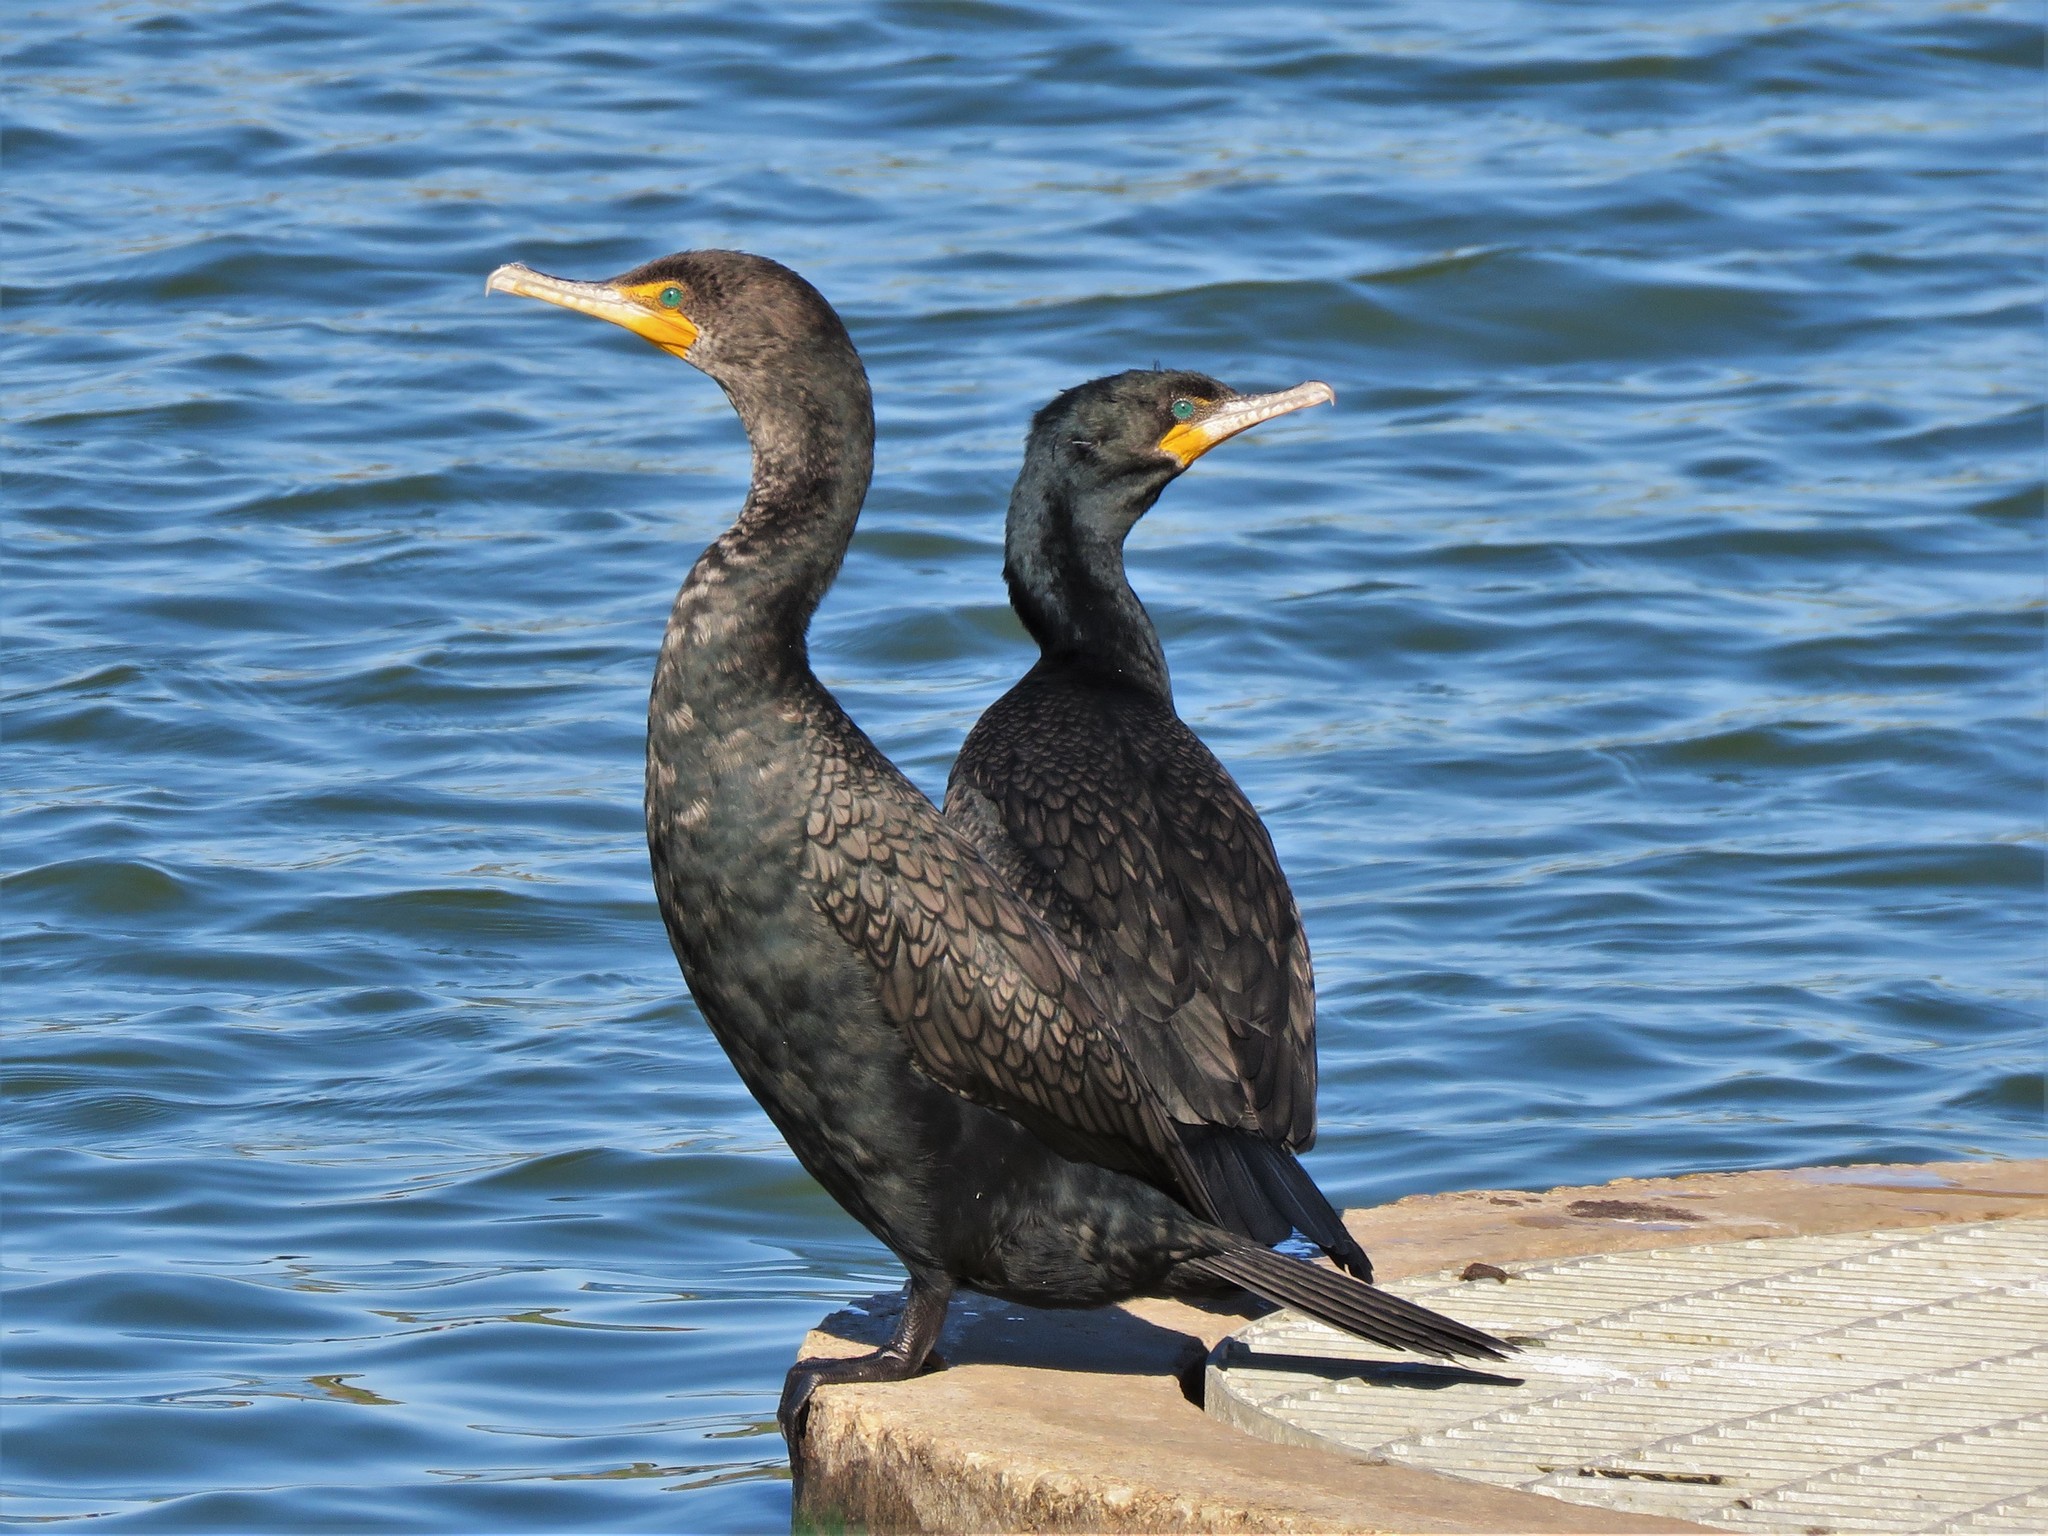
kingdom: Animalia
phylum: Chordata
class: Aves
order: Suliformes
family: Phalacrocoracidae
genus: Phalacrocorax
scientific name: Phalacrocorax brasilianus
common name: Neotropic cormorant
